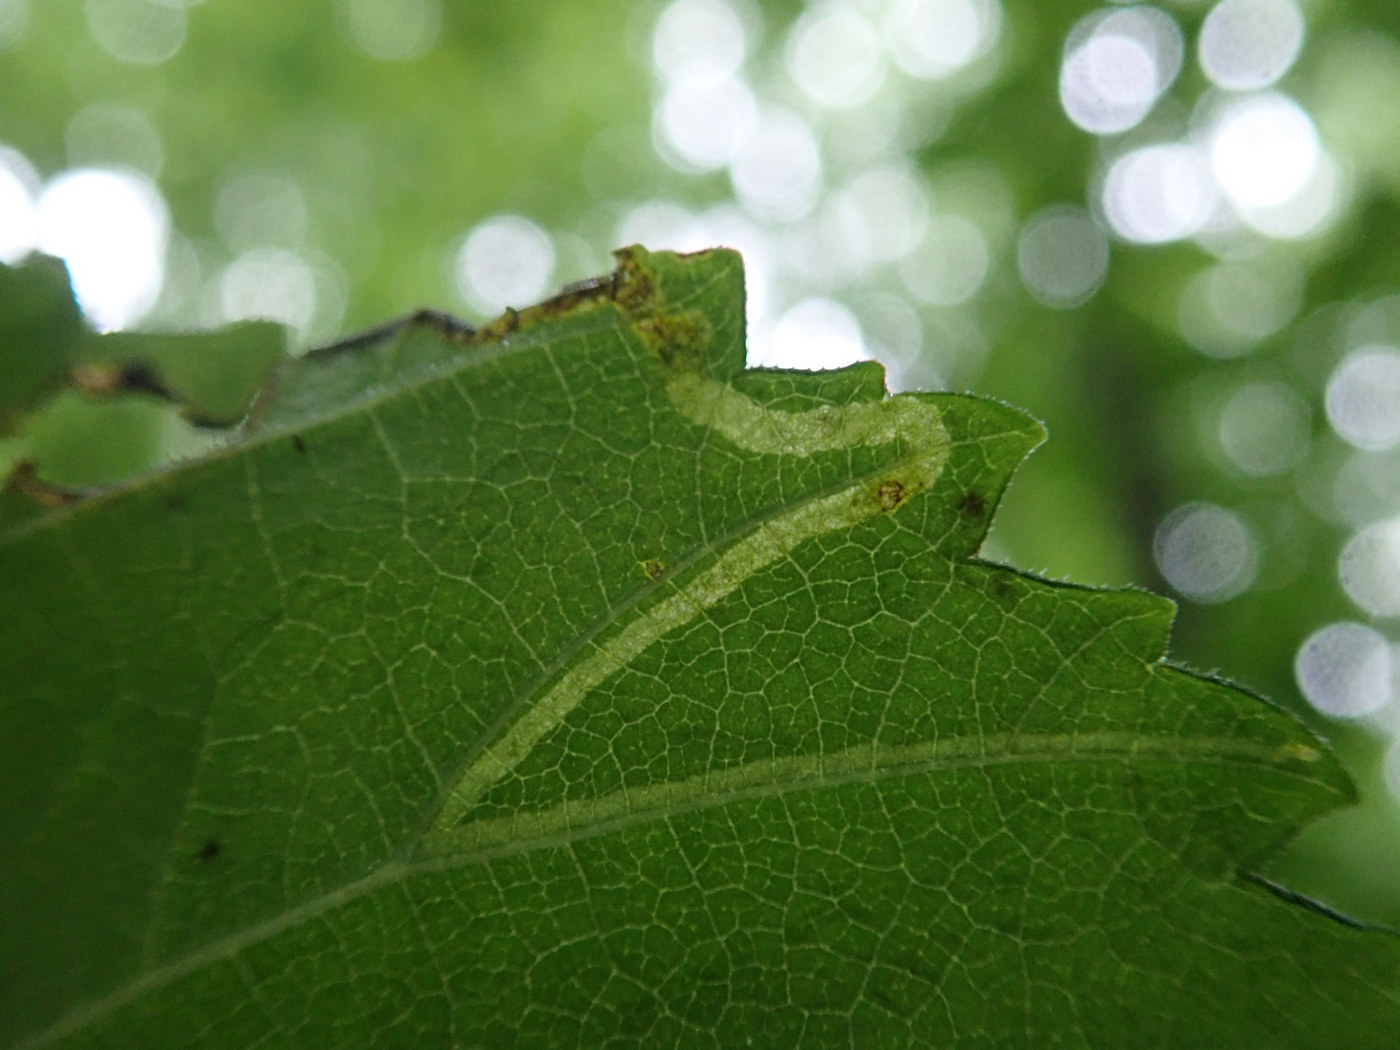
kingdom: Animalia
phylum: Arthropoda
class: Insecta
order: Diptera
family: Agromyzidae
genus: Agromyza
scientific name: Agromyza aristata
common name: Elm agromyzid leafminer
